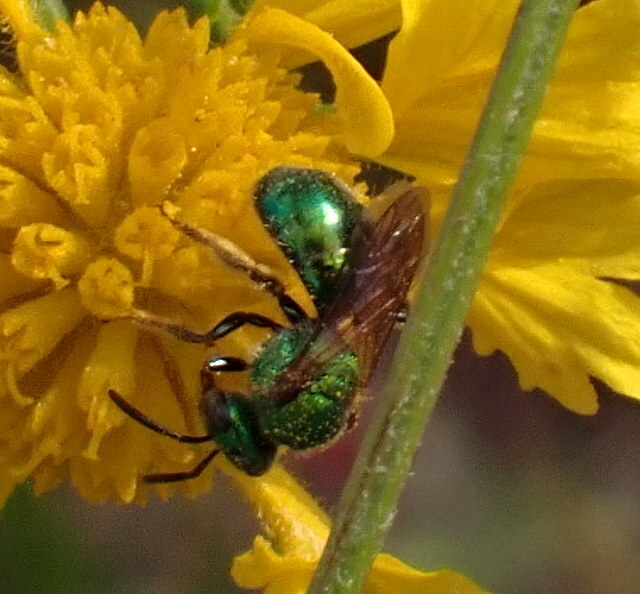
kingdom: Animalia
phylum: Arthropoda
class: Insecta
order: Hymenoptera
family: Halictidae
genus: Augochlora
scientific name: Augochlora pura
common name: Pure green sweat bee
